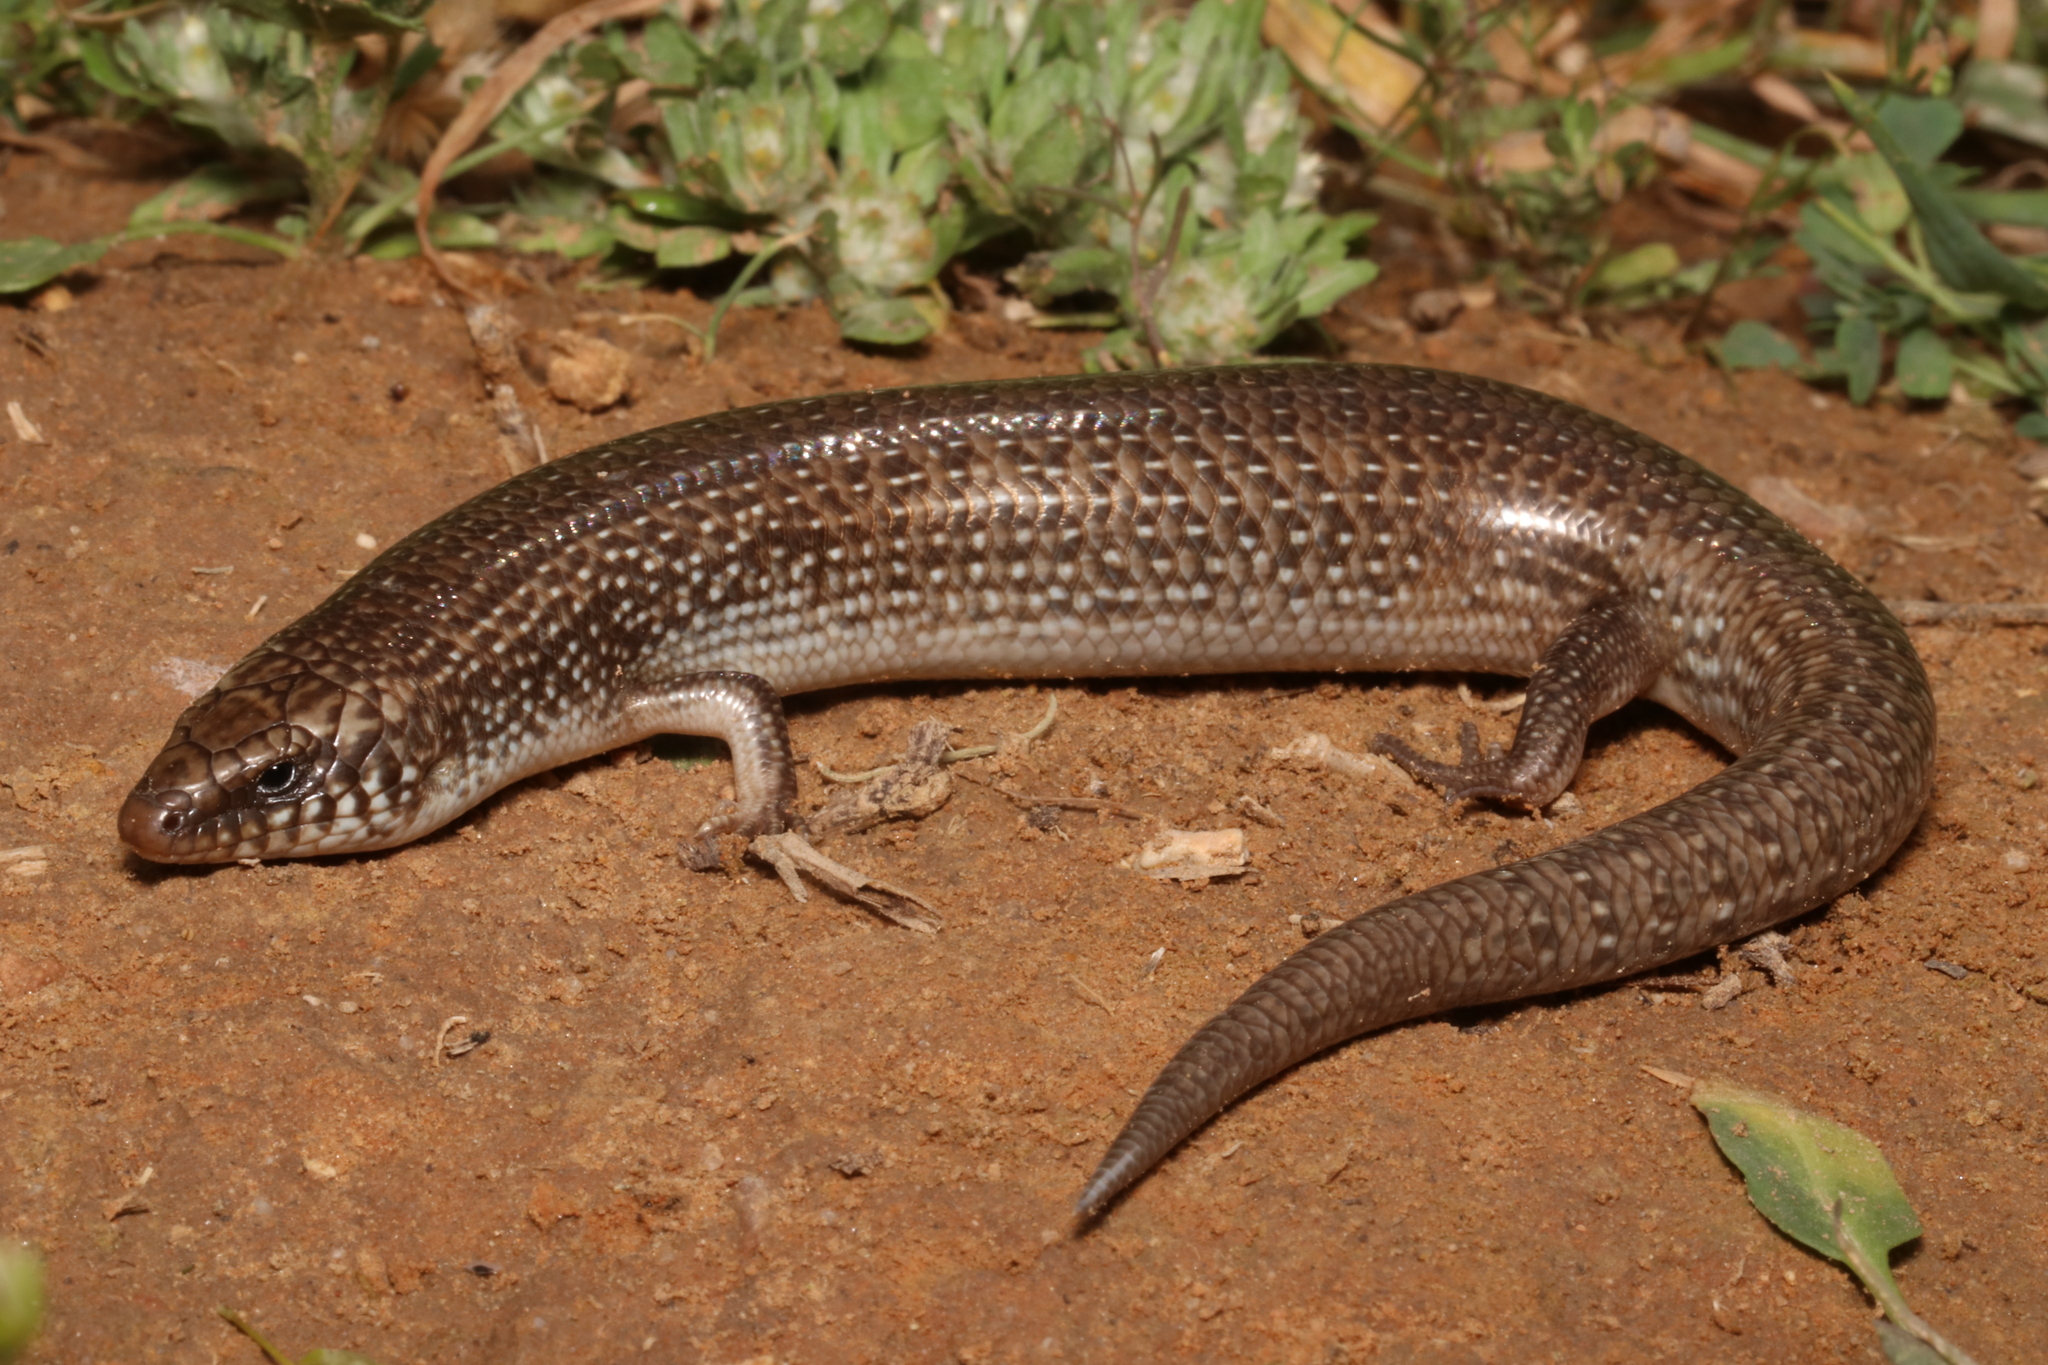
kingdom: Animalia
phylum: Chordata
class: Squamata
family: Scincidae
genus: Chalcides
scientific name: Chalcides ocellatus
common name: Ocellated skink
